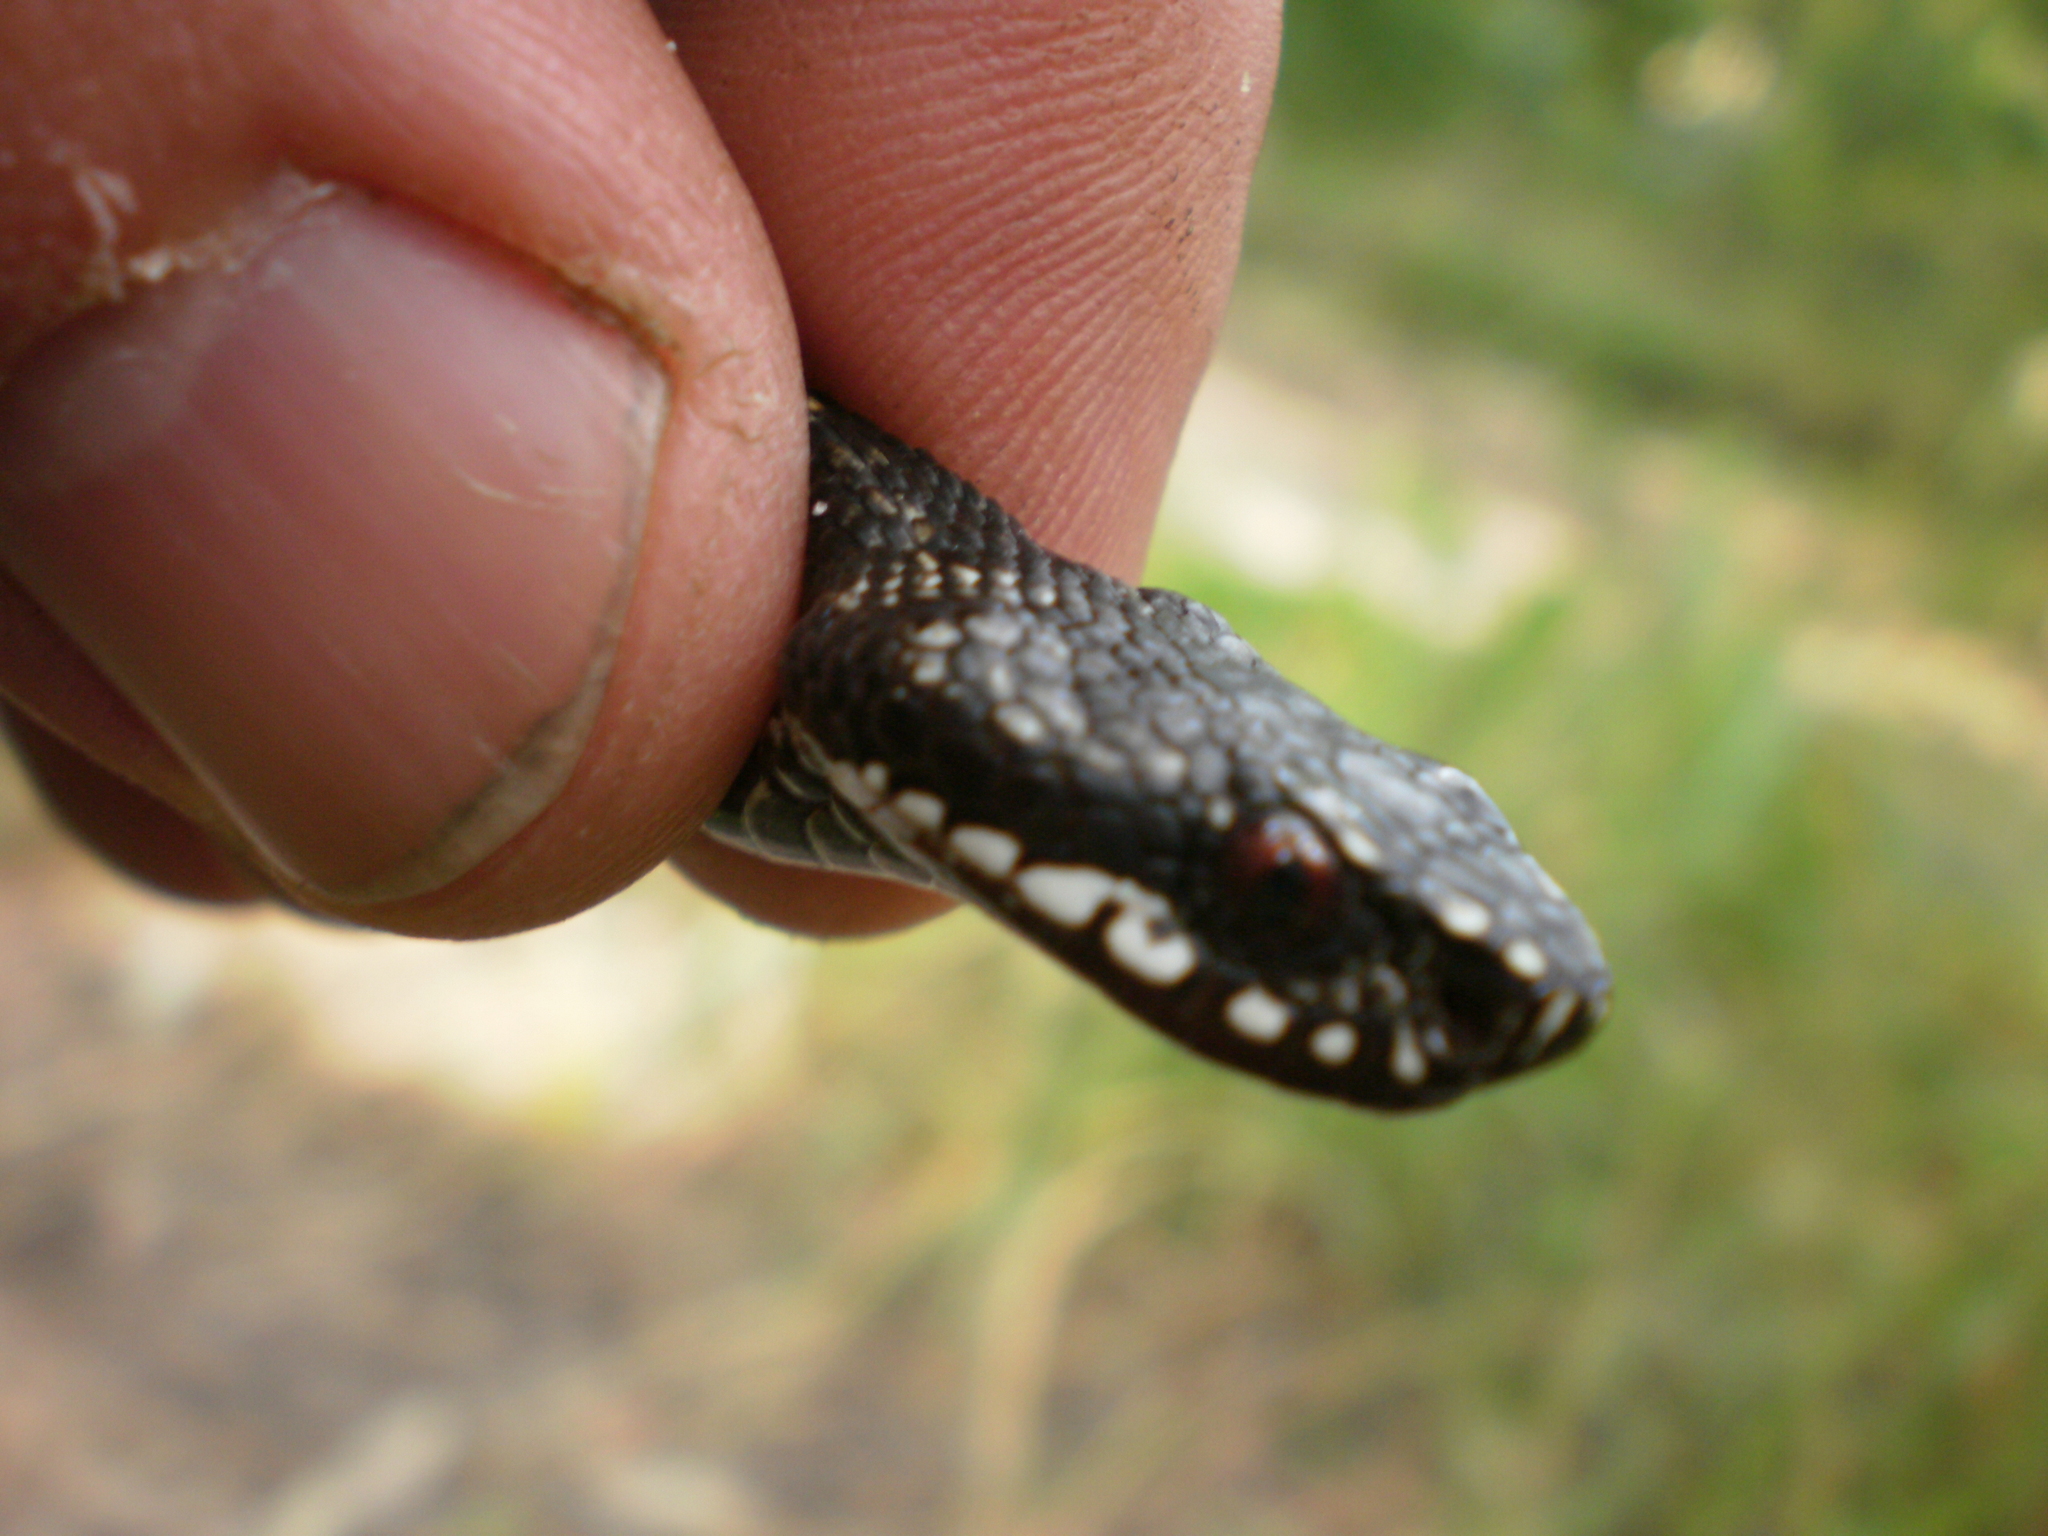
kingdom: Animalia
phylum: Chordata
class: Squamata
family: Viperidae
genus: Vipera
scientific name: Vipera berus
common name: Adder
